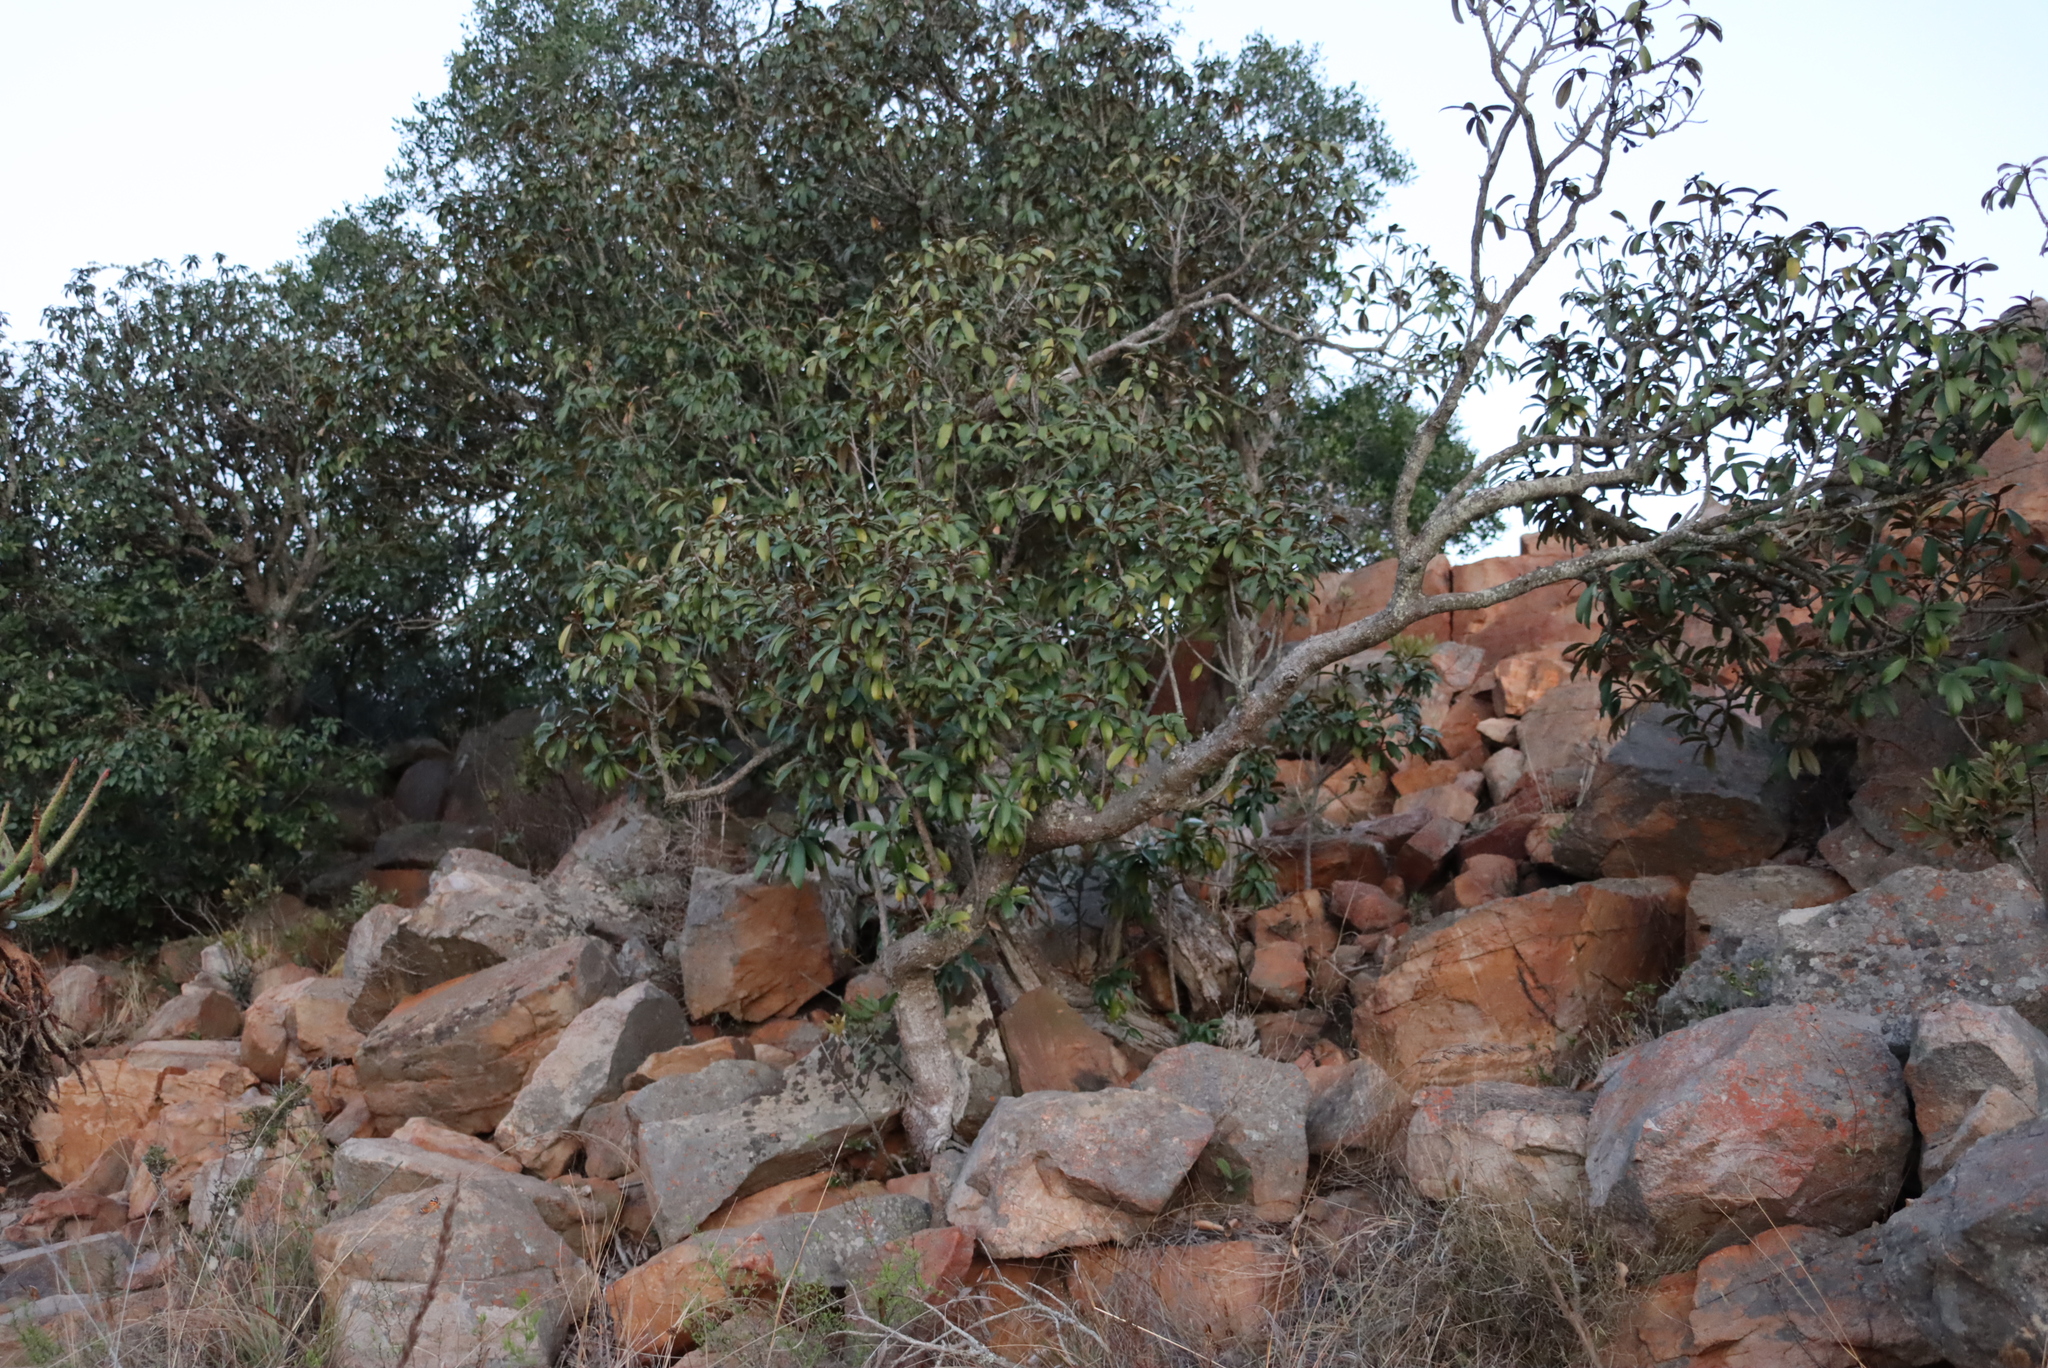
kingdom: Plantae
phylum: Tracheophyta
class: Magnoliopsida
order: Ericales
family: Sapotaceae
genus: Englerophytum
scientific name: Englerophytum magalismontanum
